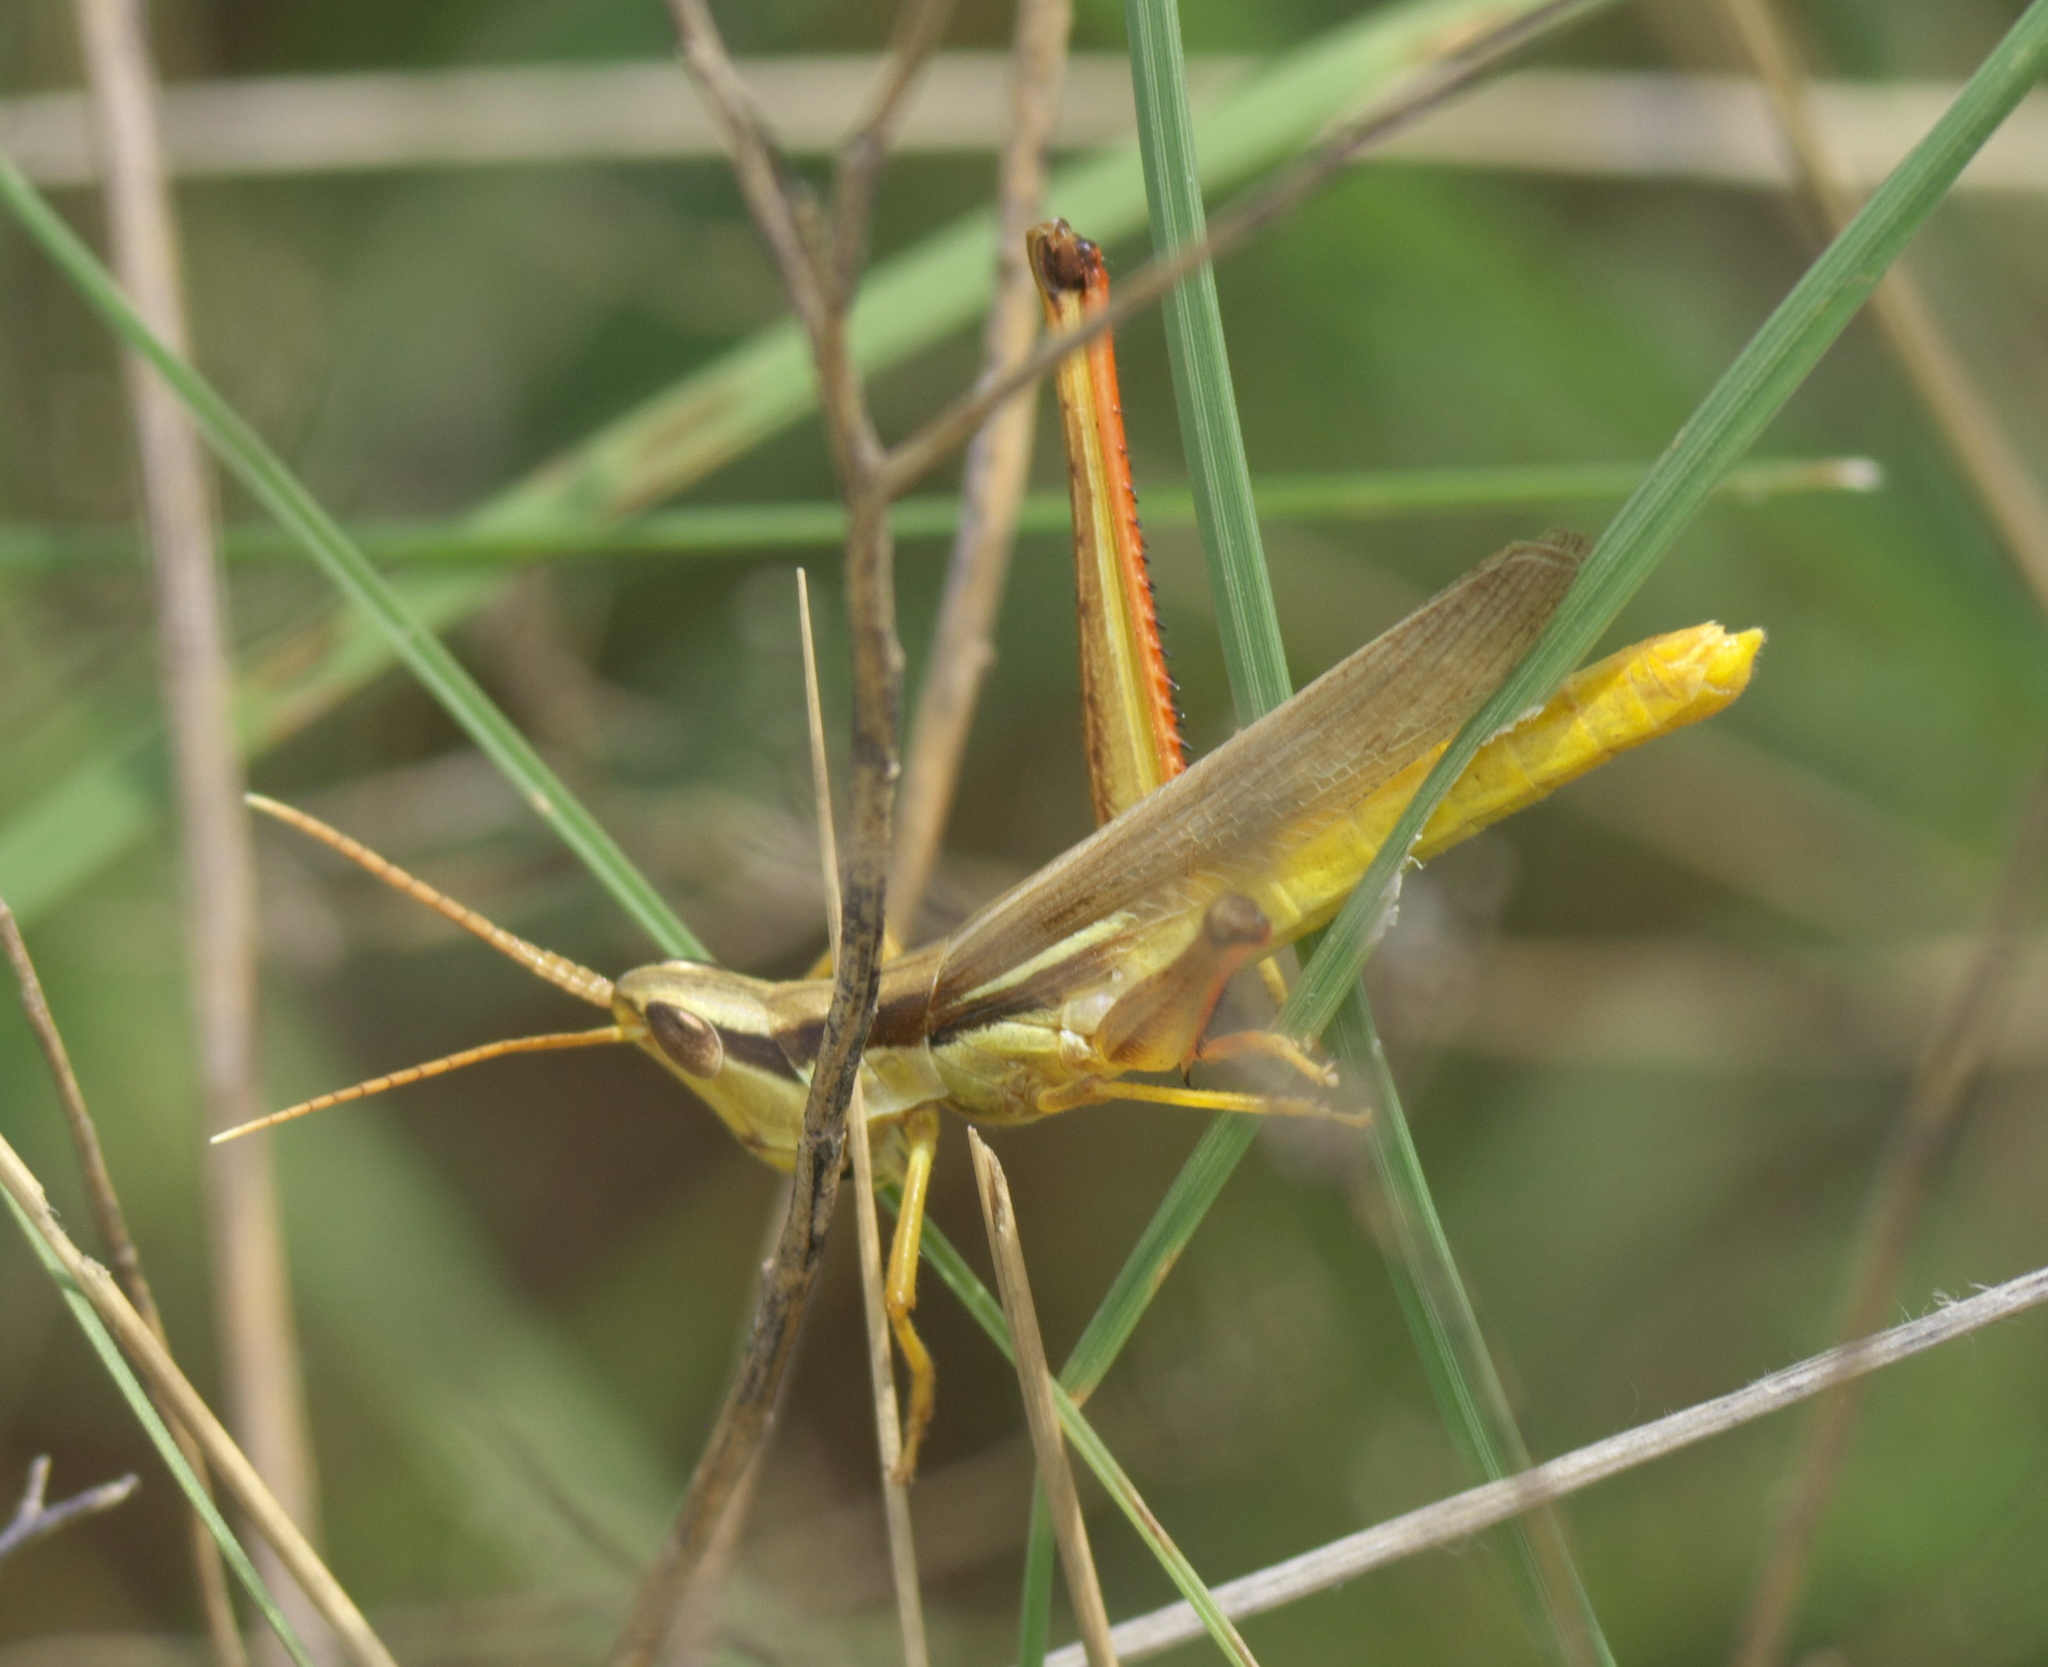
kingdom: Animalia
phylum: Arthropoda
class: Insecta
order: Orthoptera
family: Acrididae
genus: Mermiria
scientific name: Mermiria bivittata
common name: Two-striped mermiria grasshopper
